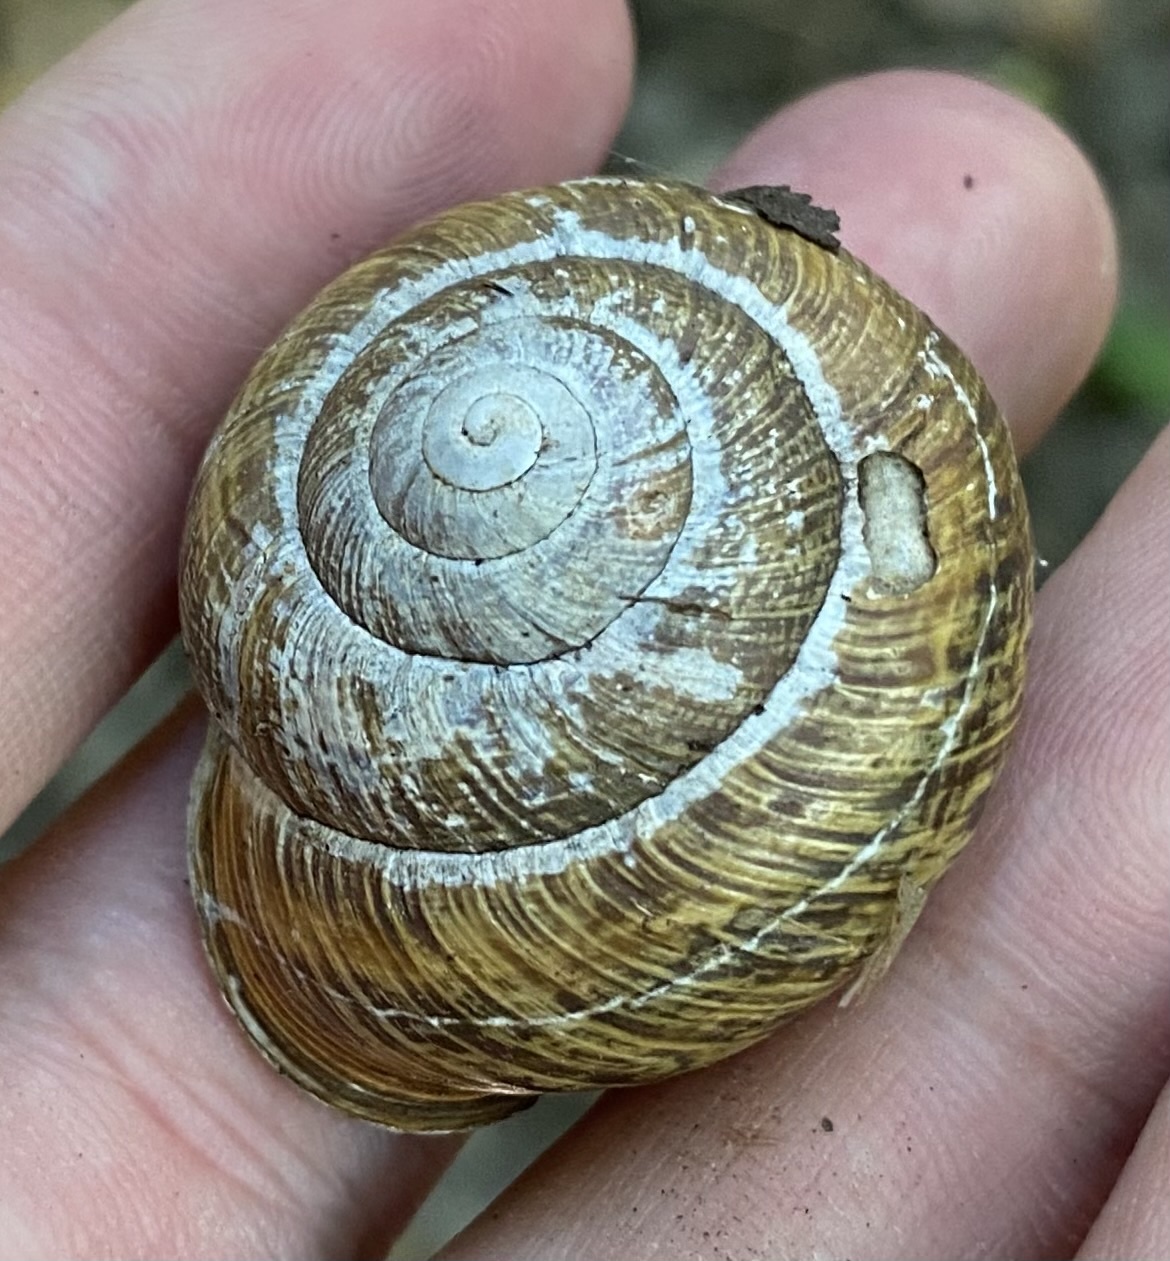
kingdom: Animalia
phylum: Mollusca
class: Gastropoda
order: Stylommatophora
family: Helicidae
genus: Caucasotachea
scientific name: Caucasotachea atrolabiata
